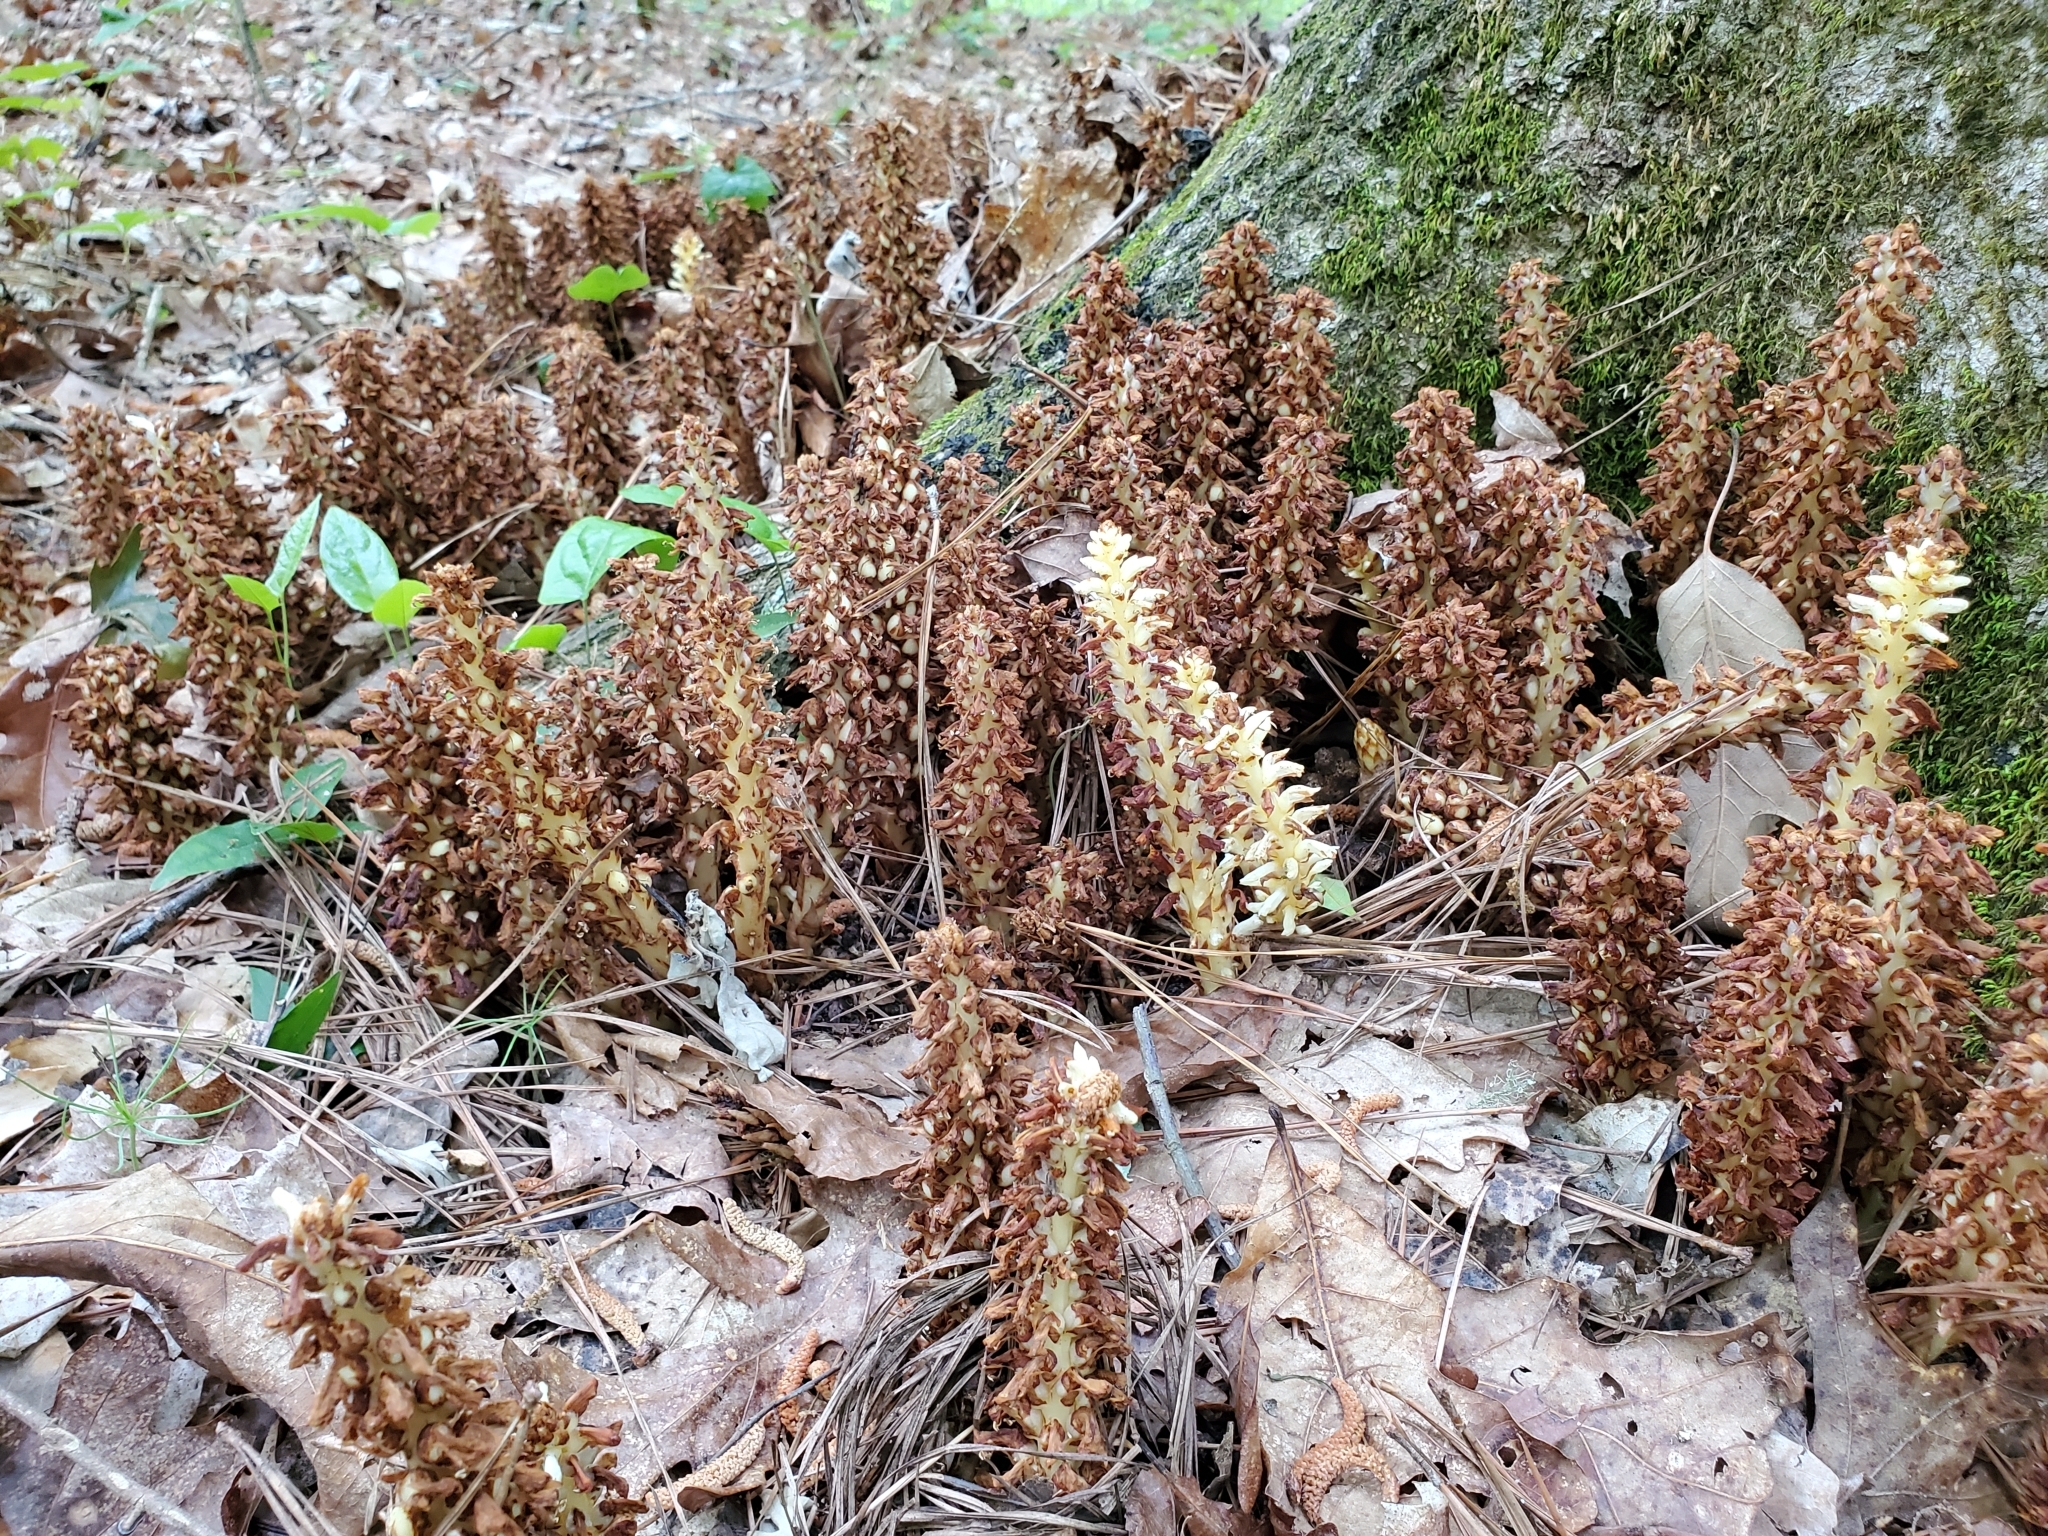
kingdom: Plantae
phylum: Tracheophyta
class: Magnoliopsida
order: Lamiales
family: Orobanchaceae
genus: Conopholis
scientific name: Conopholis americana
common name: American cancer-root
